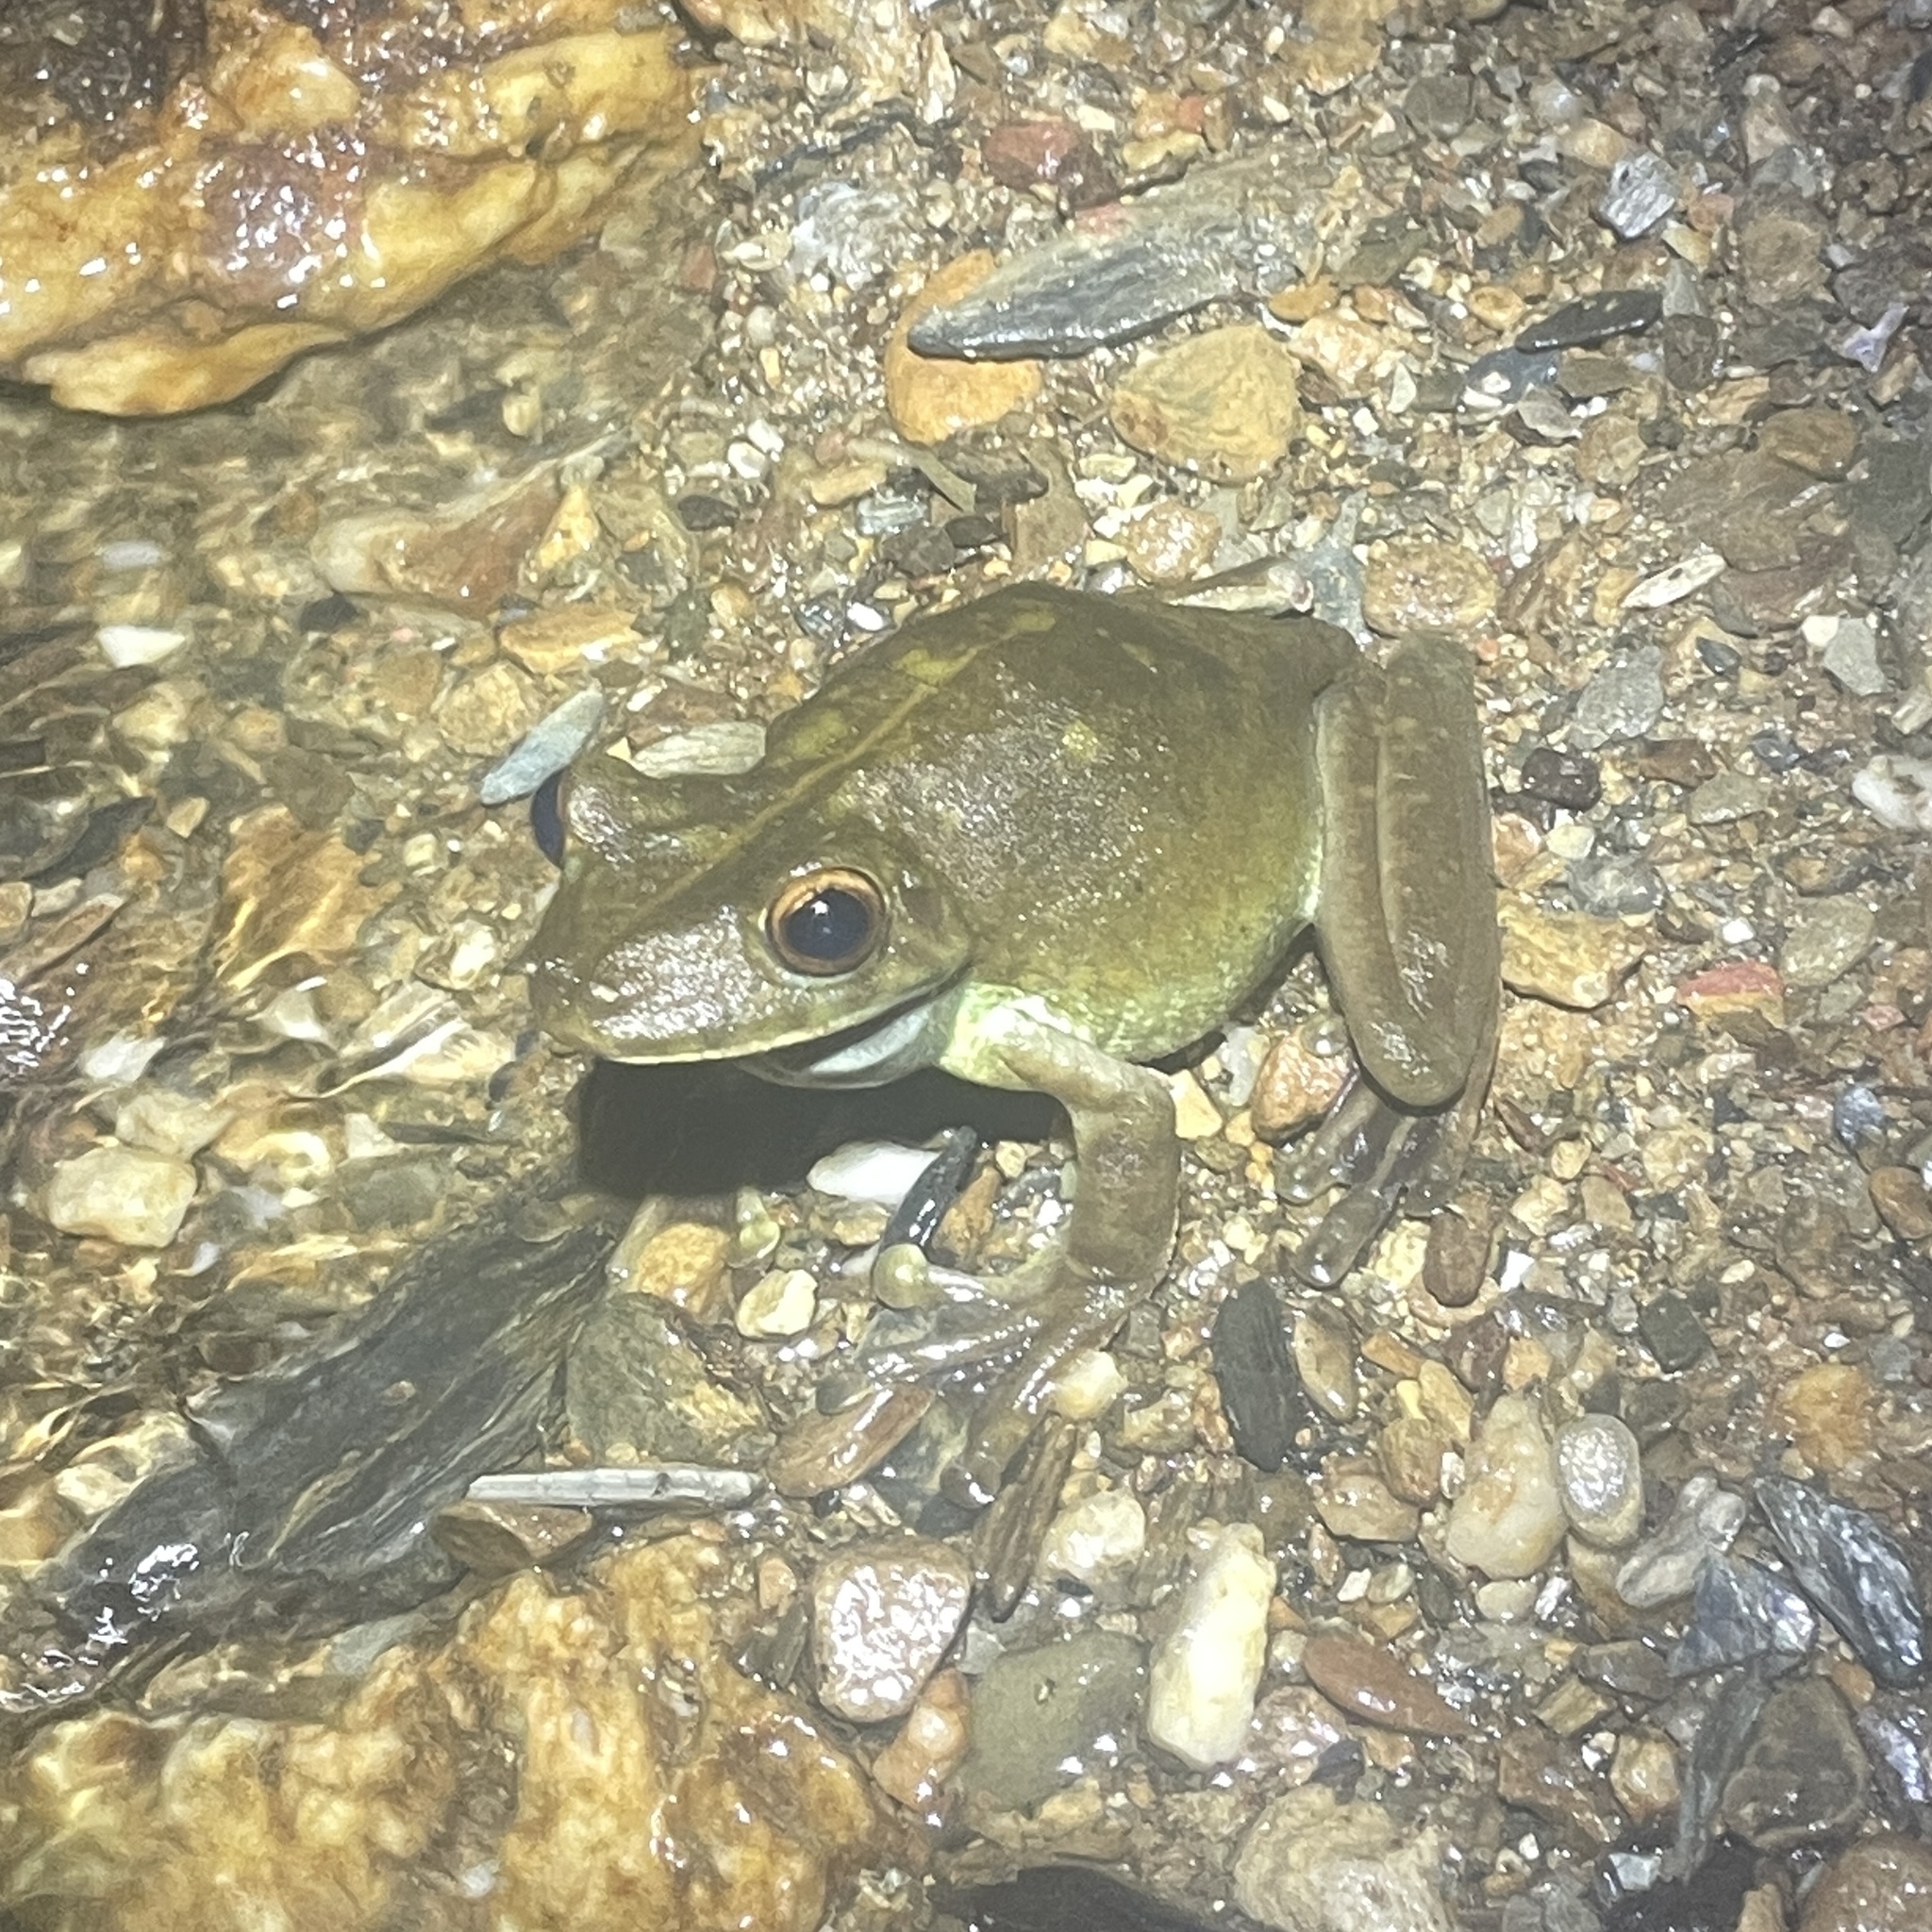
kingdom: Animalia
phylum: Chordata
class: Amphibia
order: Anura
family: Hylidae
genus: Boana
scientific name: Boana boans
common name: Giant gladiator treefrog
